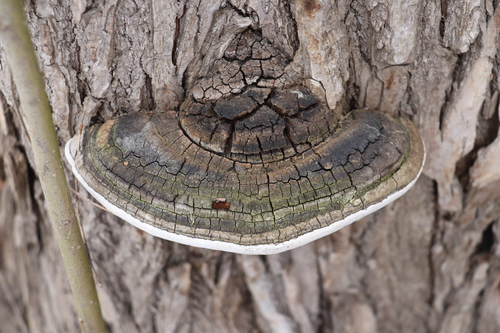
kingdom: Fungi
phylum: Basidiomycota
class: Agaricomycetes
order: Hymenochaetales
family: Hymenochaetaceae
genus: Phellinus
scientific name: Phellinus igniarius
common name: Willow bracket
